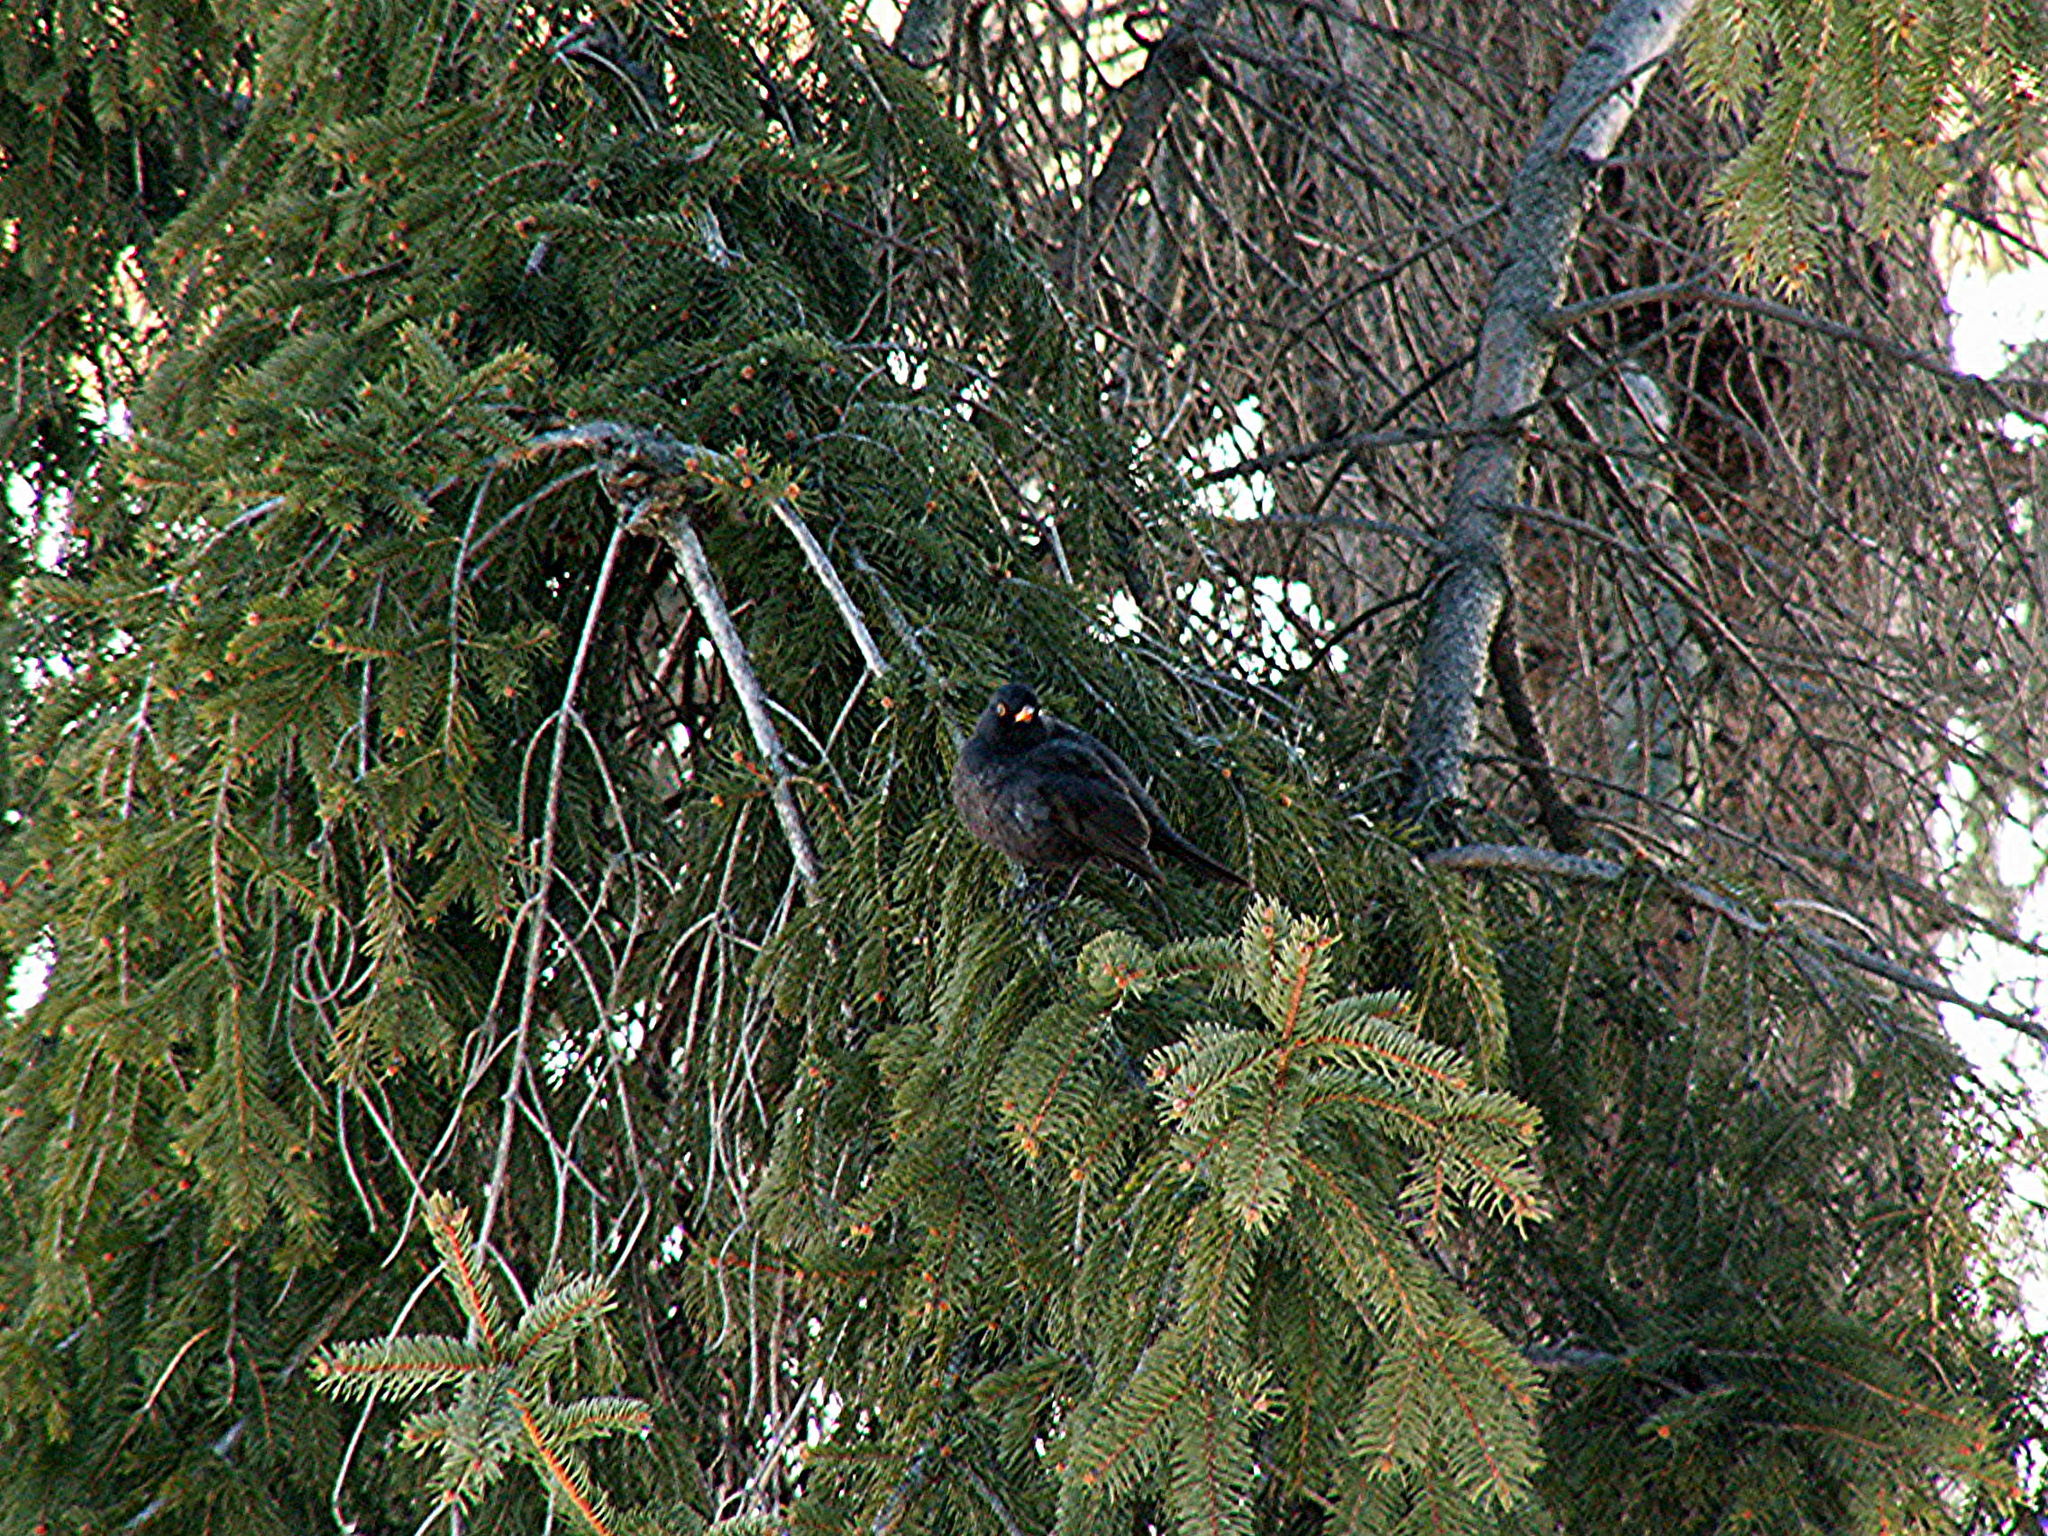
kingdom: Animalia
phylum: Chordata
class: Aves
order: Passeriformes
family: Turdidae
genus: Turdus
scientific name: Turdus merula
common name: Common blackbird
